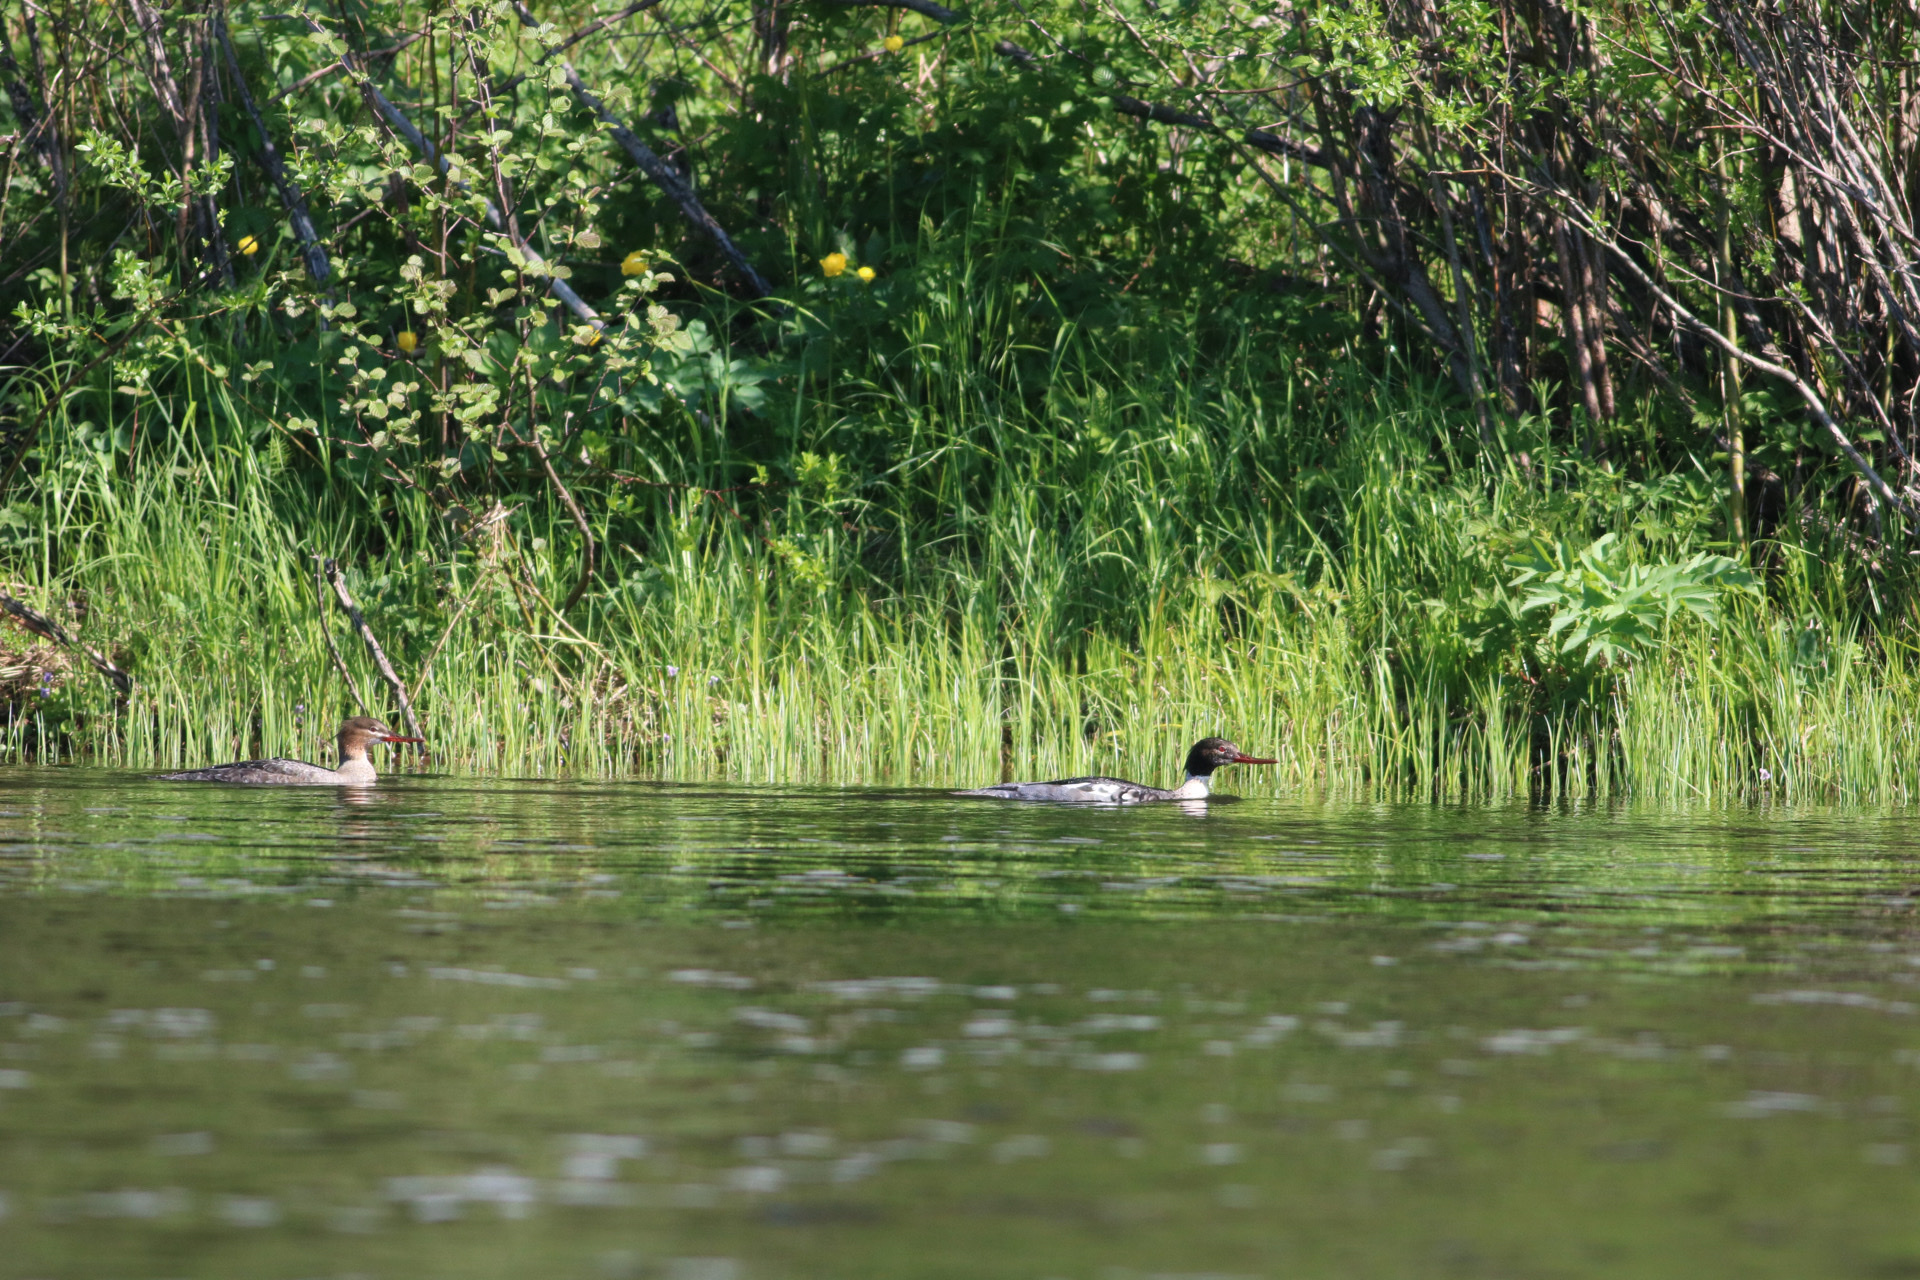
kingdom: Animalia
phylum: Chordata
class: Aves
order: Anseriformes
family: Anatidae
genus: Mergus
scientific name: Mergus serrator
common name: Red-breasted merganser
